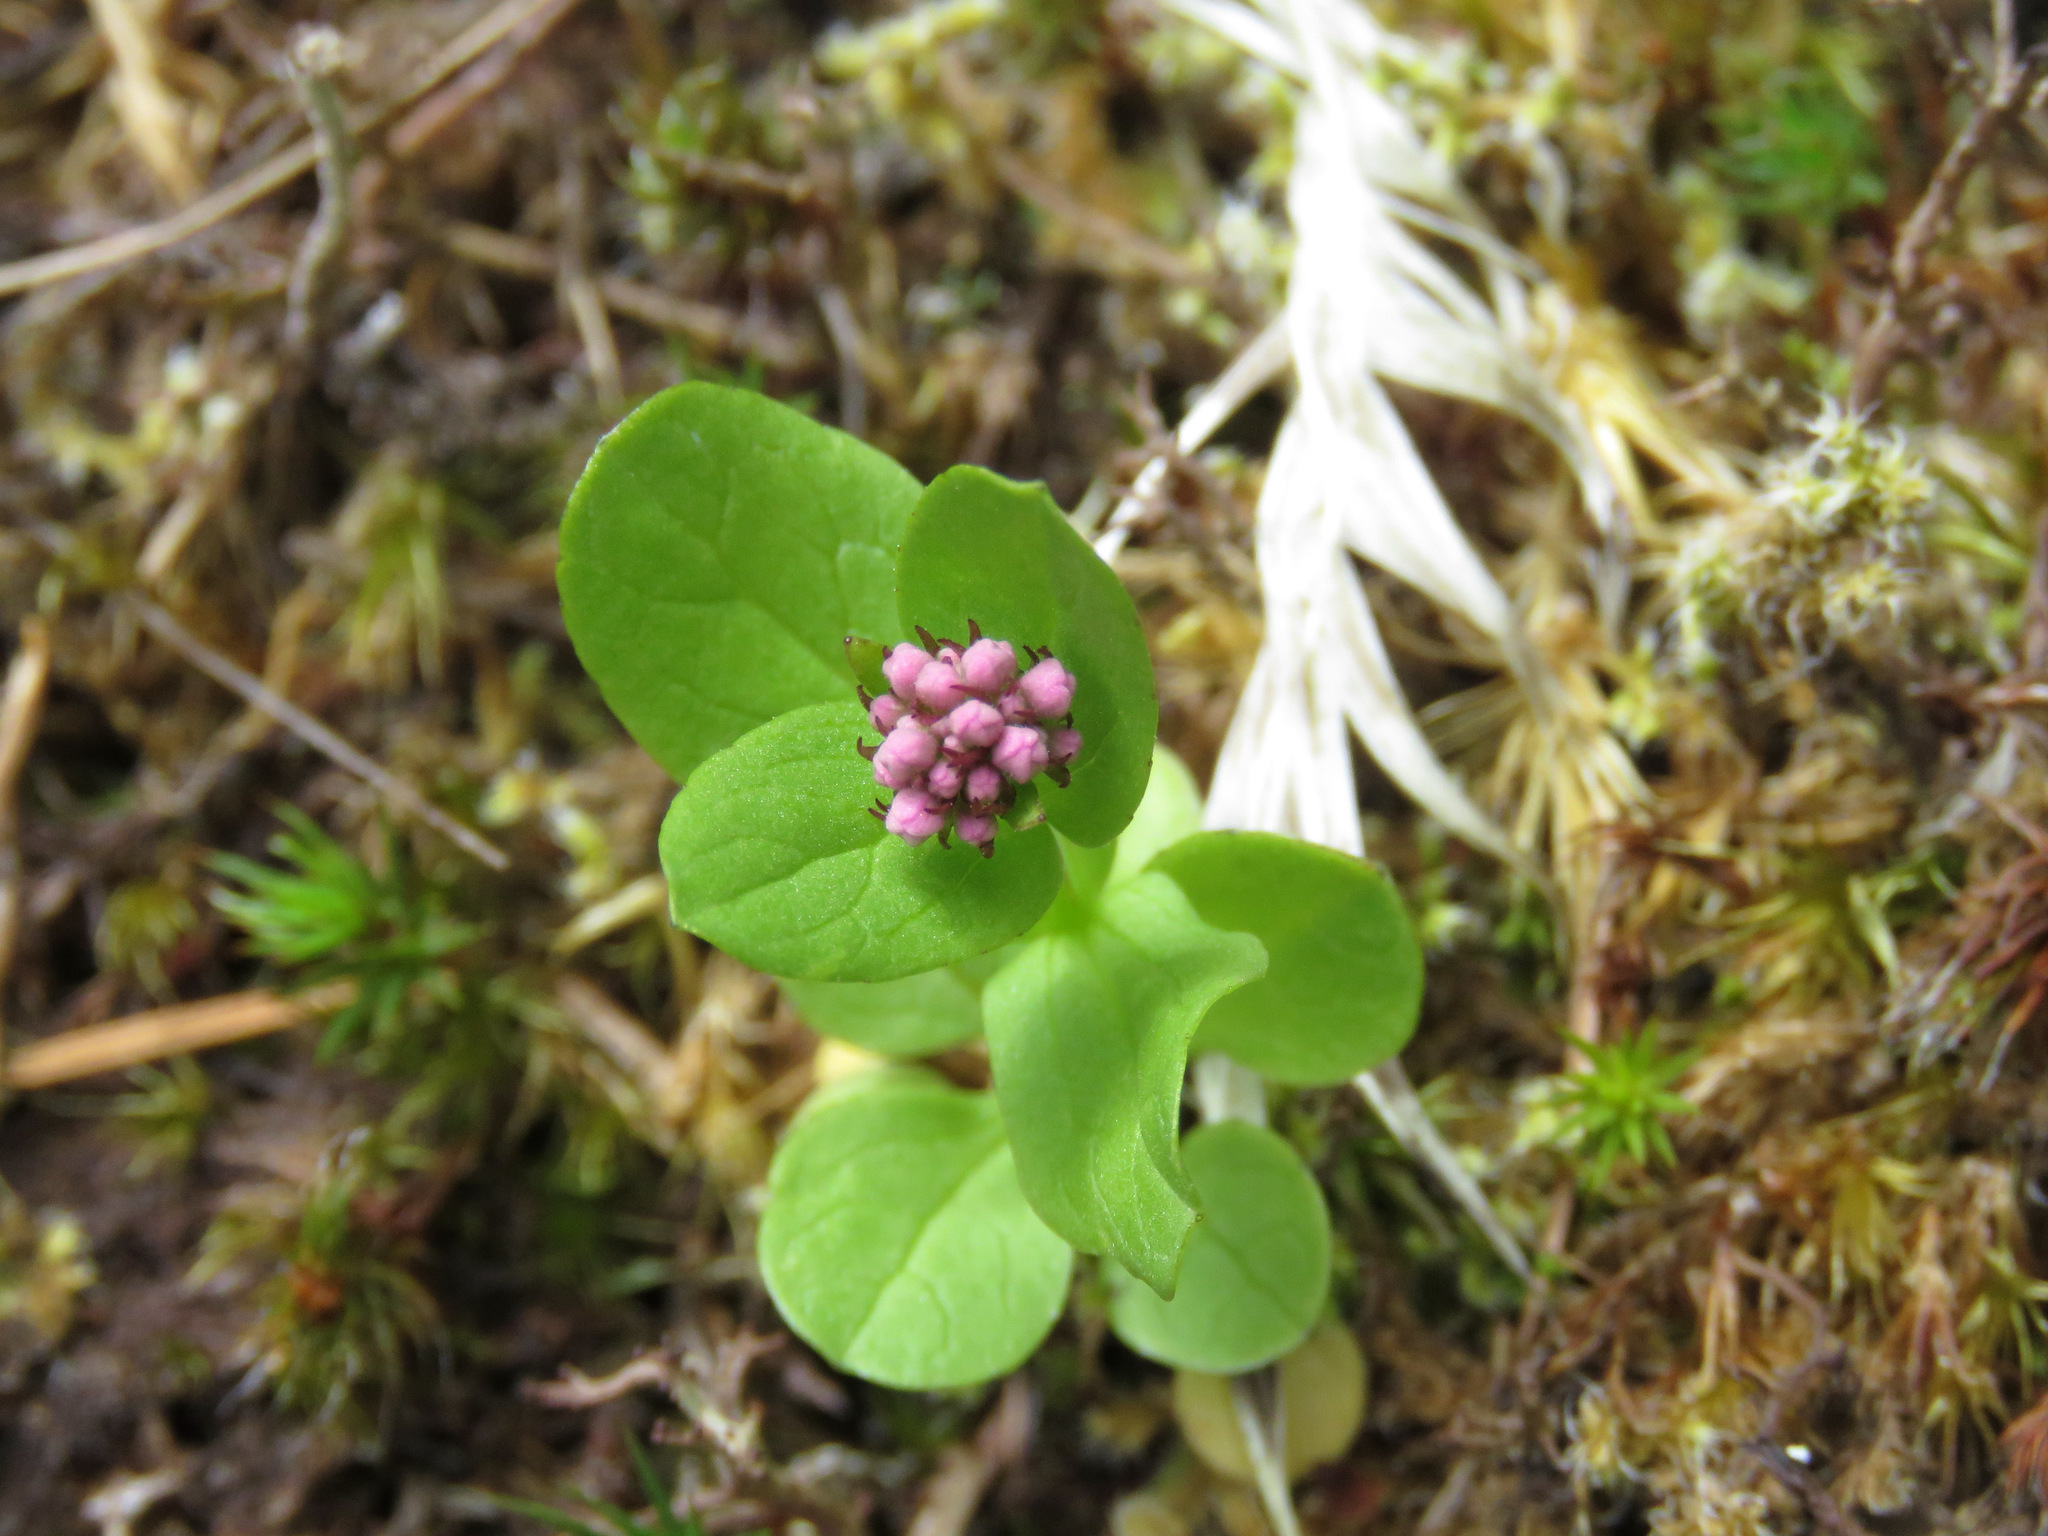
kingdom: Plantae
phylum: Tracheophyta
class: Magnoliopsida
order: Dipsacales
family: Caprifoliaceae
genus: Plectritis
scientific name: Plectritis congesta
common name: Pink plectritis
